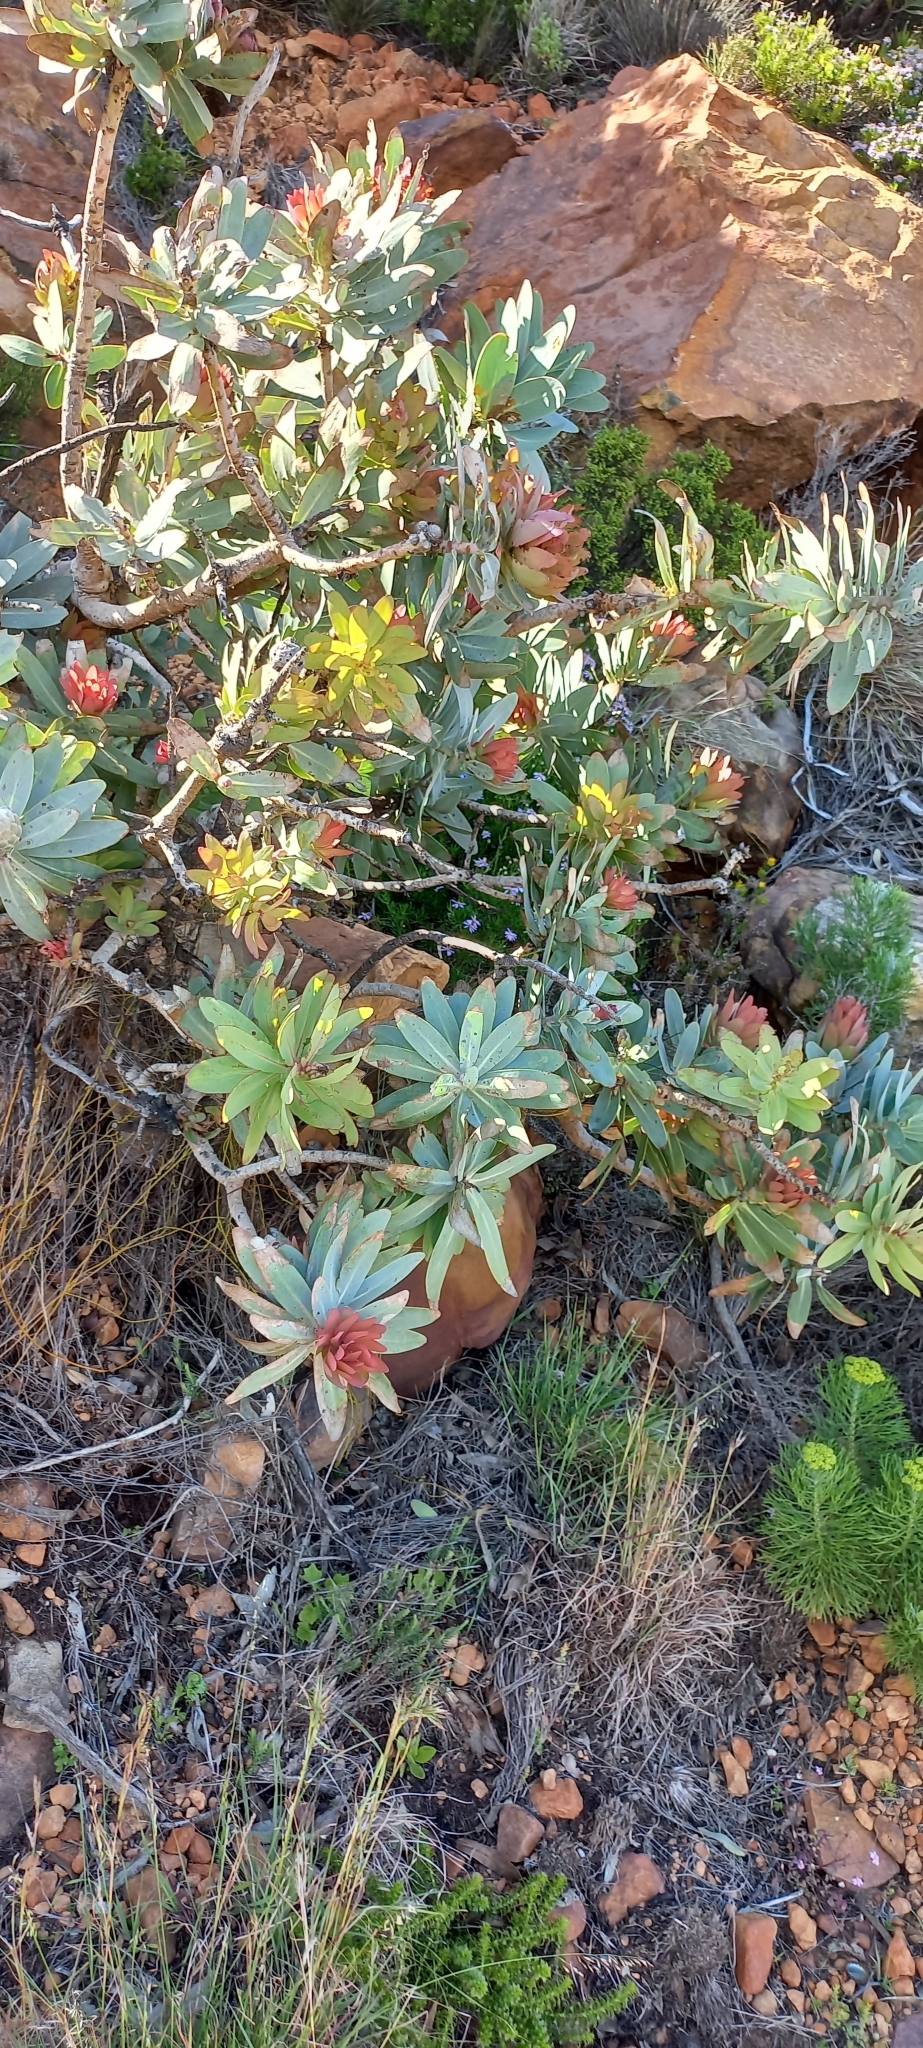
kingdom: Plantae
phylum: Tracheophyta
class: Magnoliopsida
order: Proteales
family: Proteaceae
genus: Protea
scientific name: Protea nitida
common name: Tree protea
